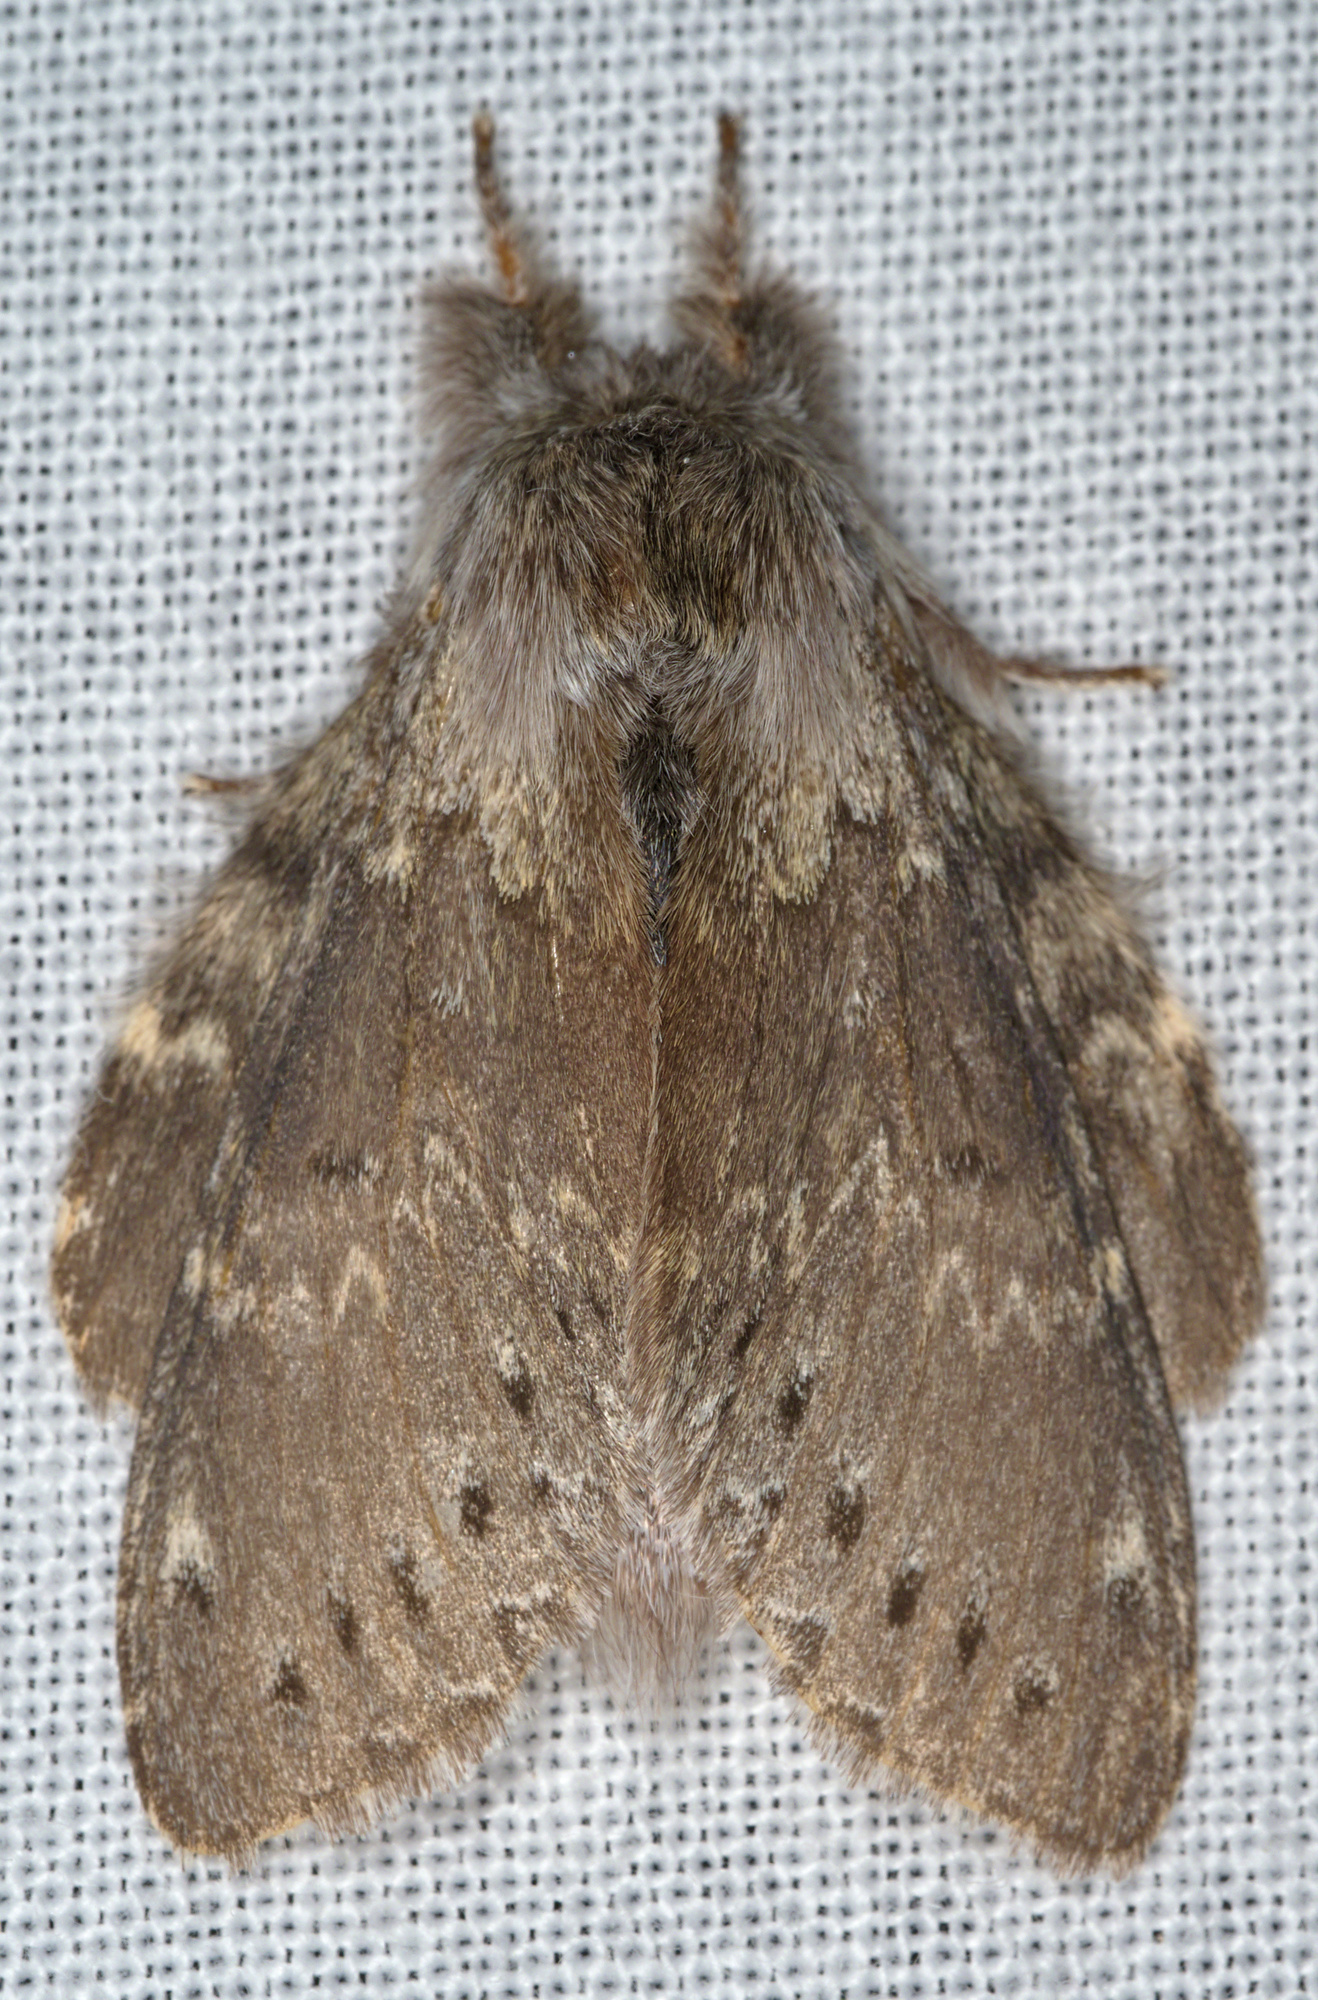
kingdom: Animalia
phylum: Arthropoda
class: Insecta
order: Lepidoptera
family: Notodontidae
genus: Stauropus
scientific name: Stauropus fagi
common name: Lobster moth
